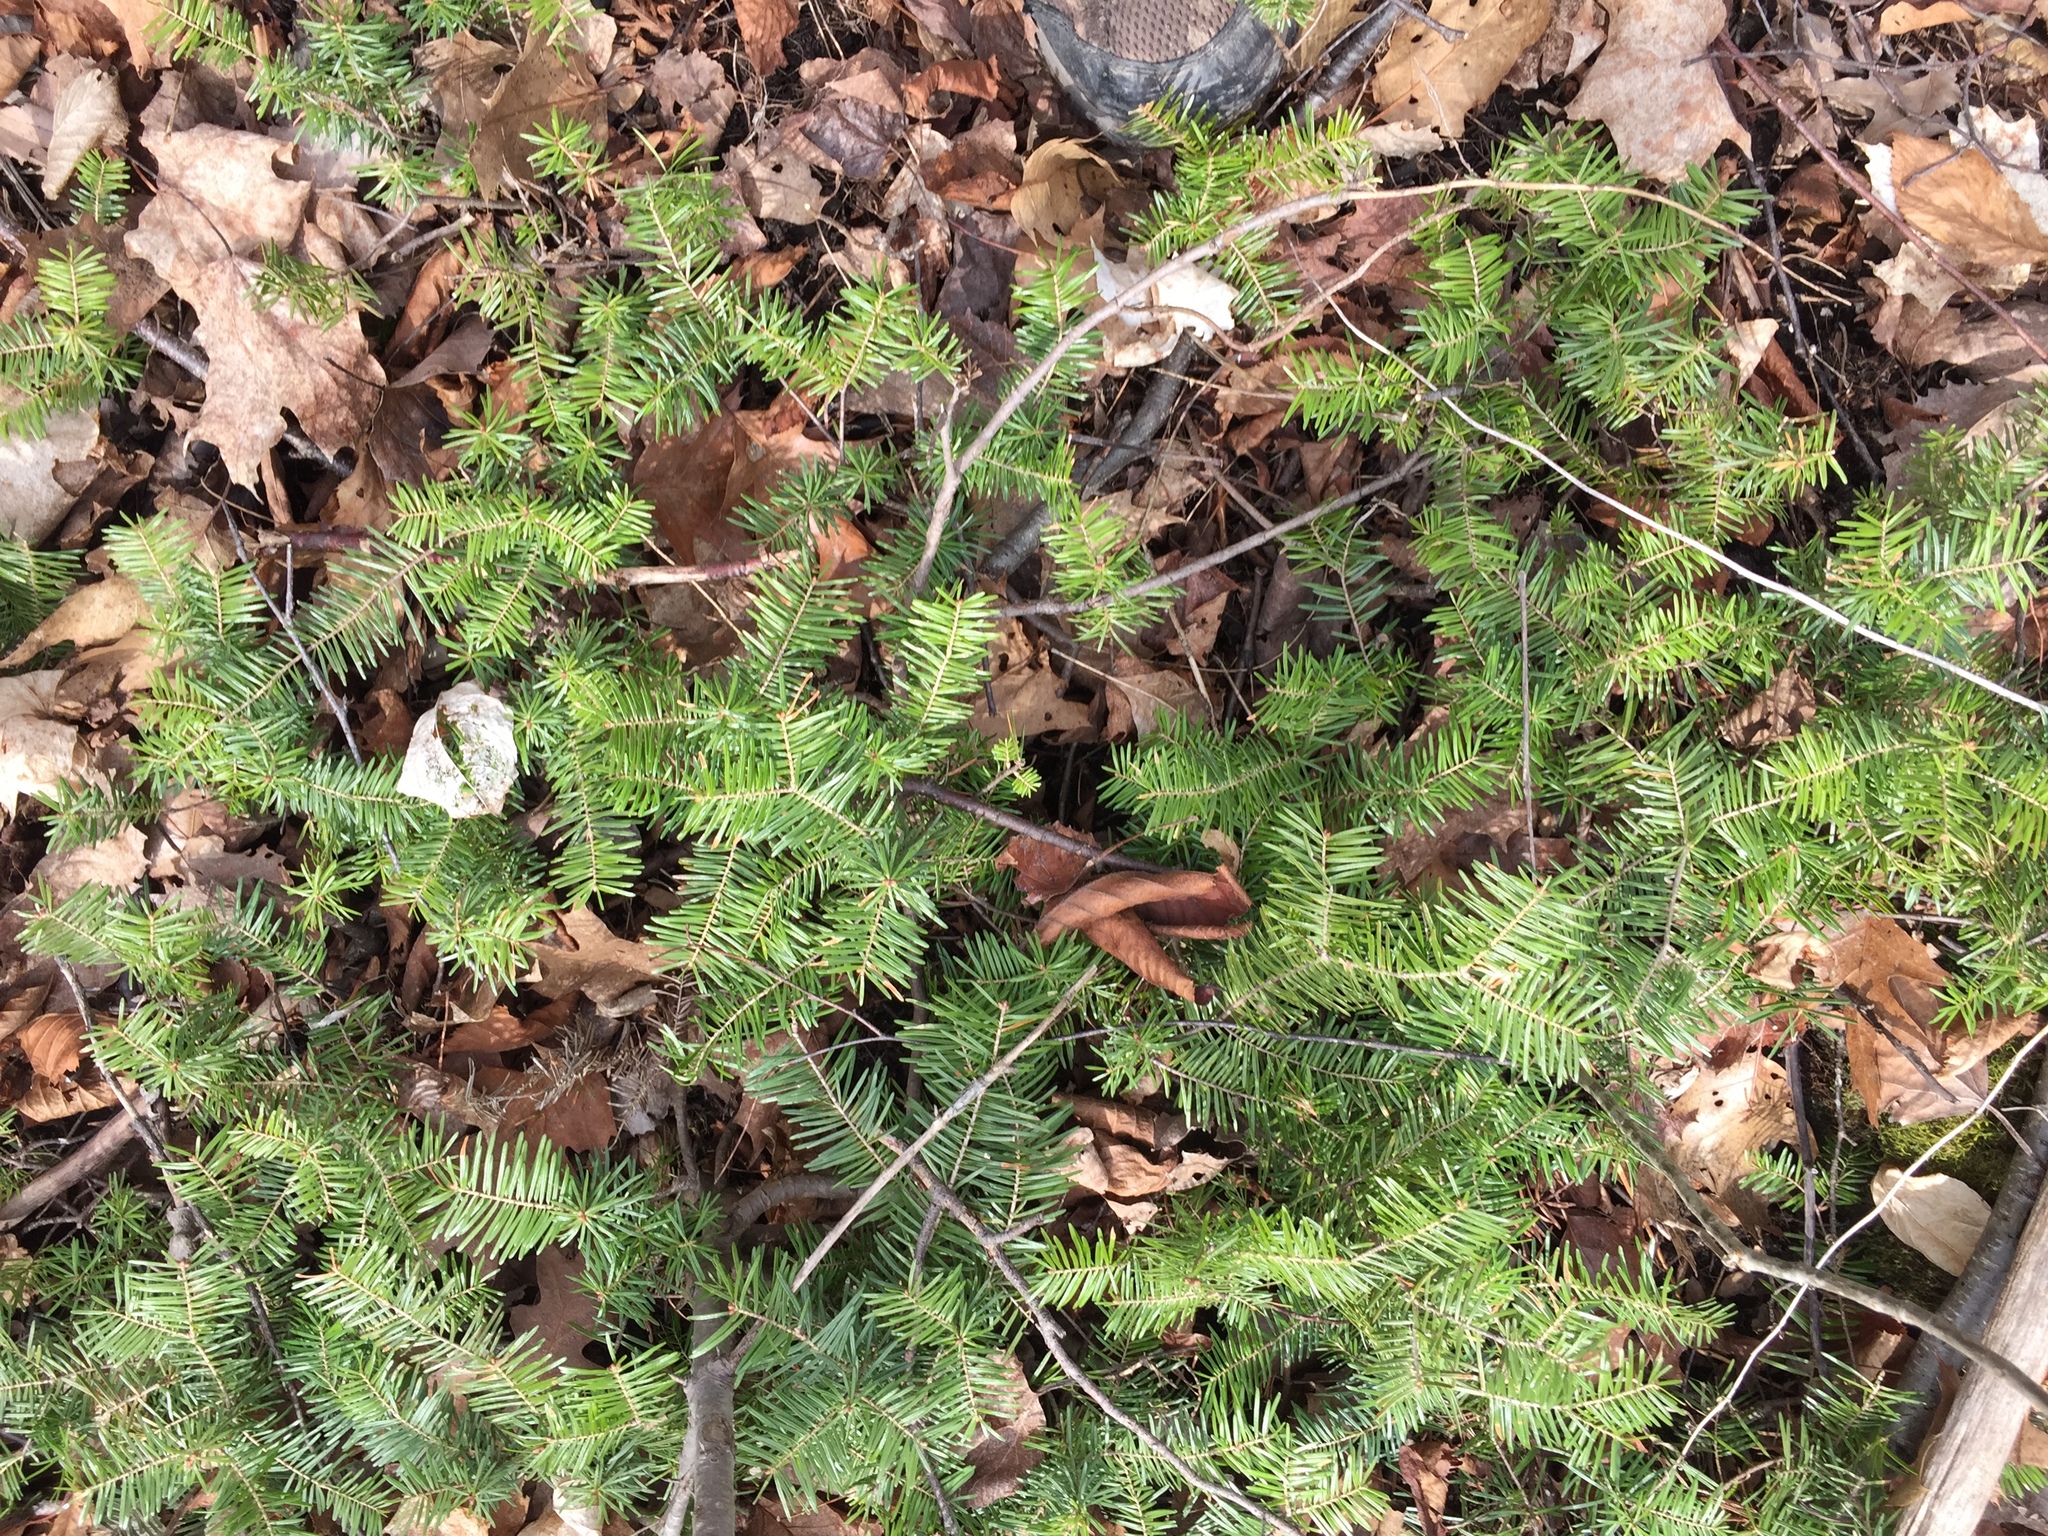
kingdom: Plantae
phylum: Tracheophyta
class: Pinopsida
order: Pinales
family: Pinaceae
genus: Abies
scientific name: Abies balsamea
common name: Balsam fir
